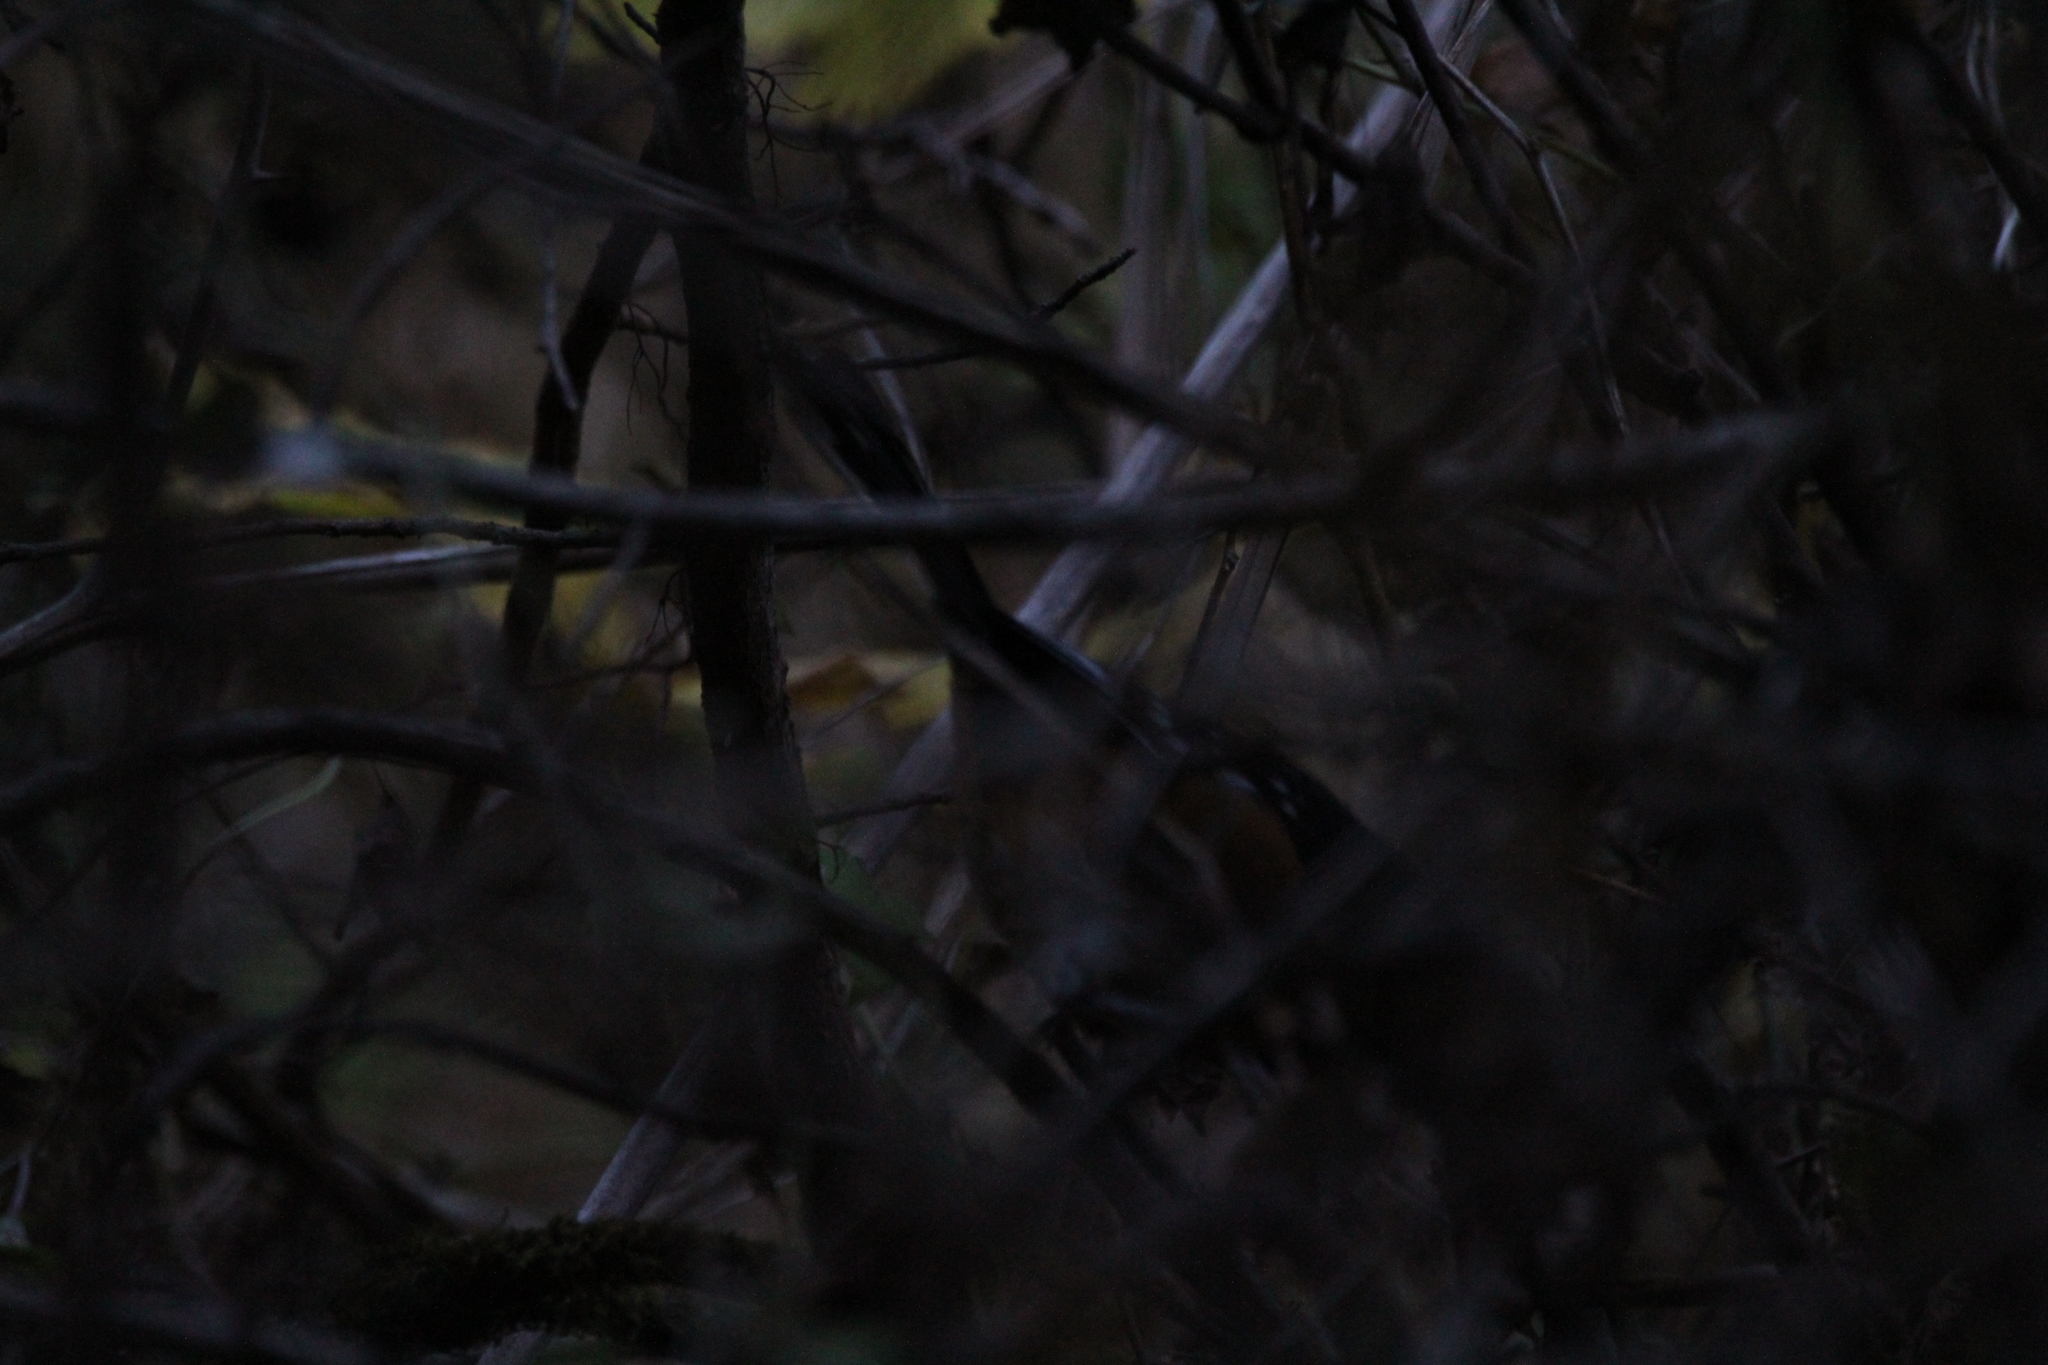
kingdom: Animalia
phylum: Chordata
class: Aves
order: Passeriformes
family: Passerellidae
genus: Pipilo
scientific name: Pipilo maculatus
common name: Spotted towhee
